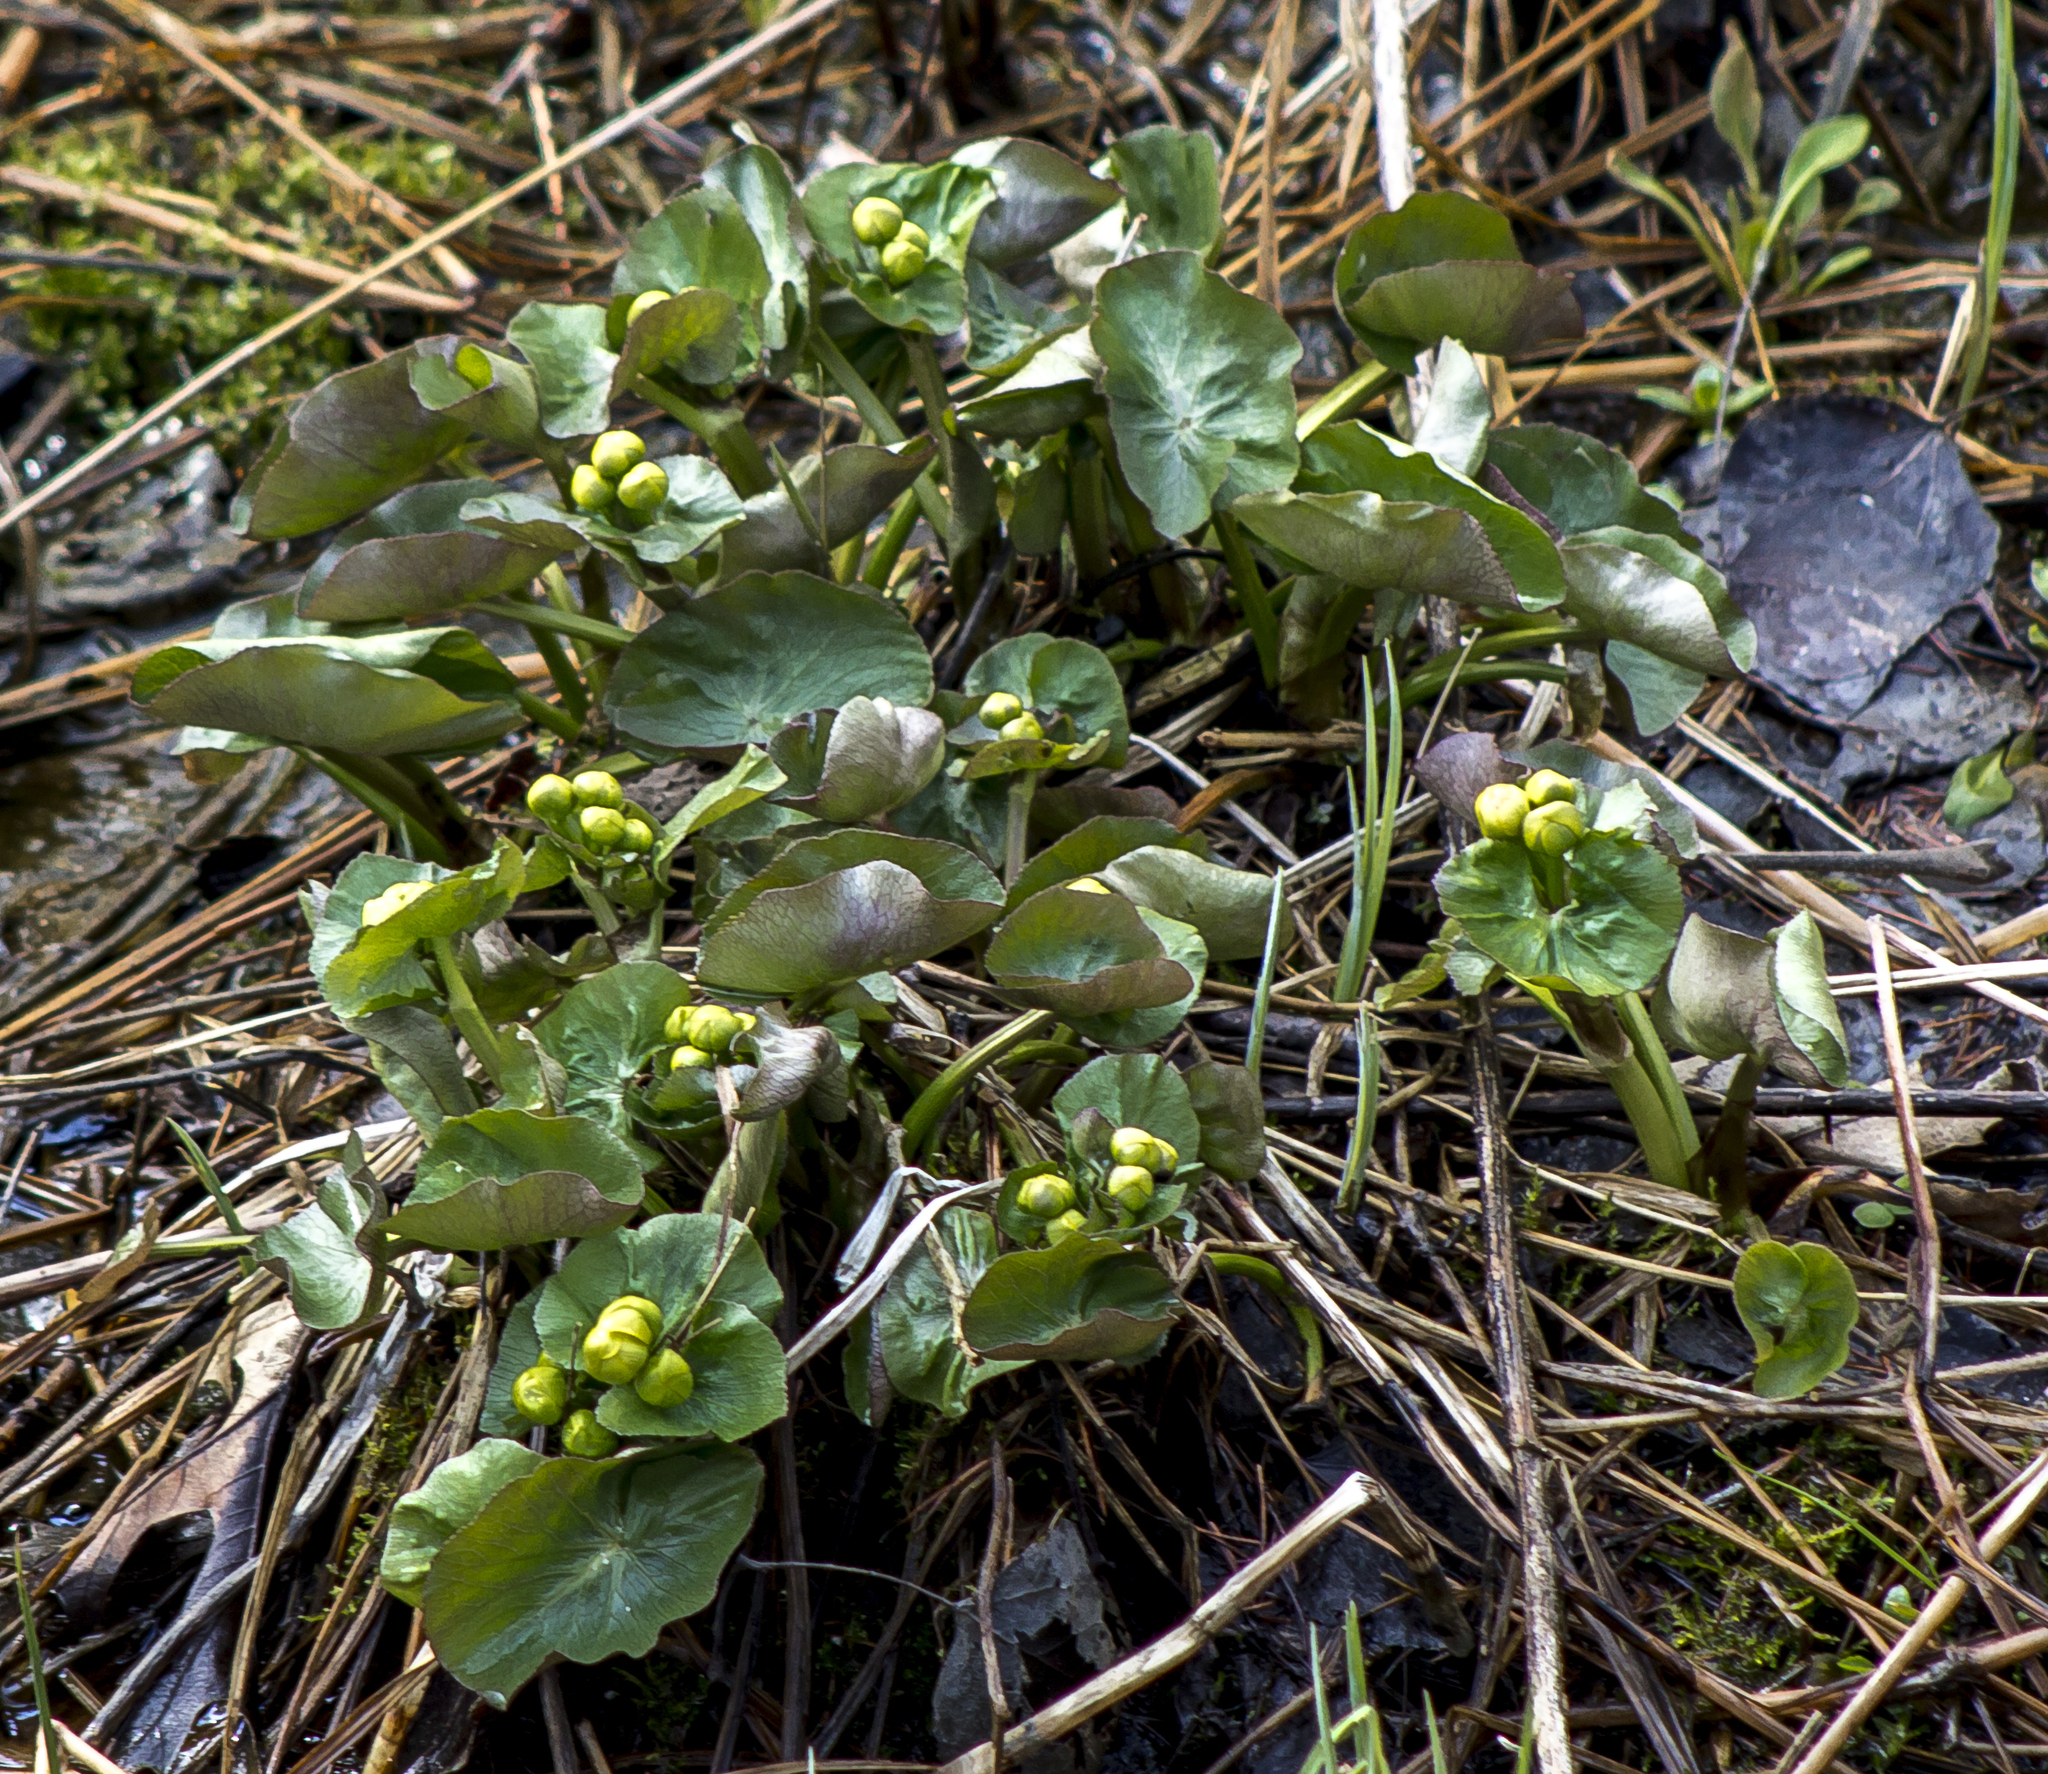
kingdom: Plantae
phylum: Tracheophyta
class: Magnoliopsida
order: Ranunculales
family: Ranunculaceae
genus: Caltha
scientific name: Caltha palustris
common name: Marsh marigold
